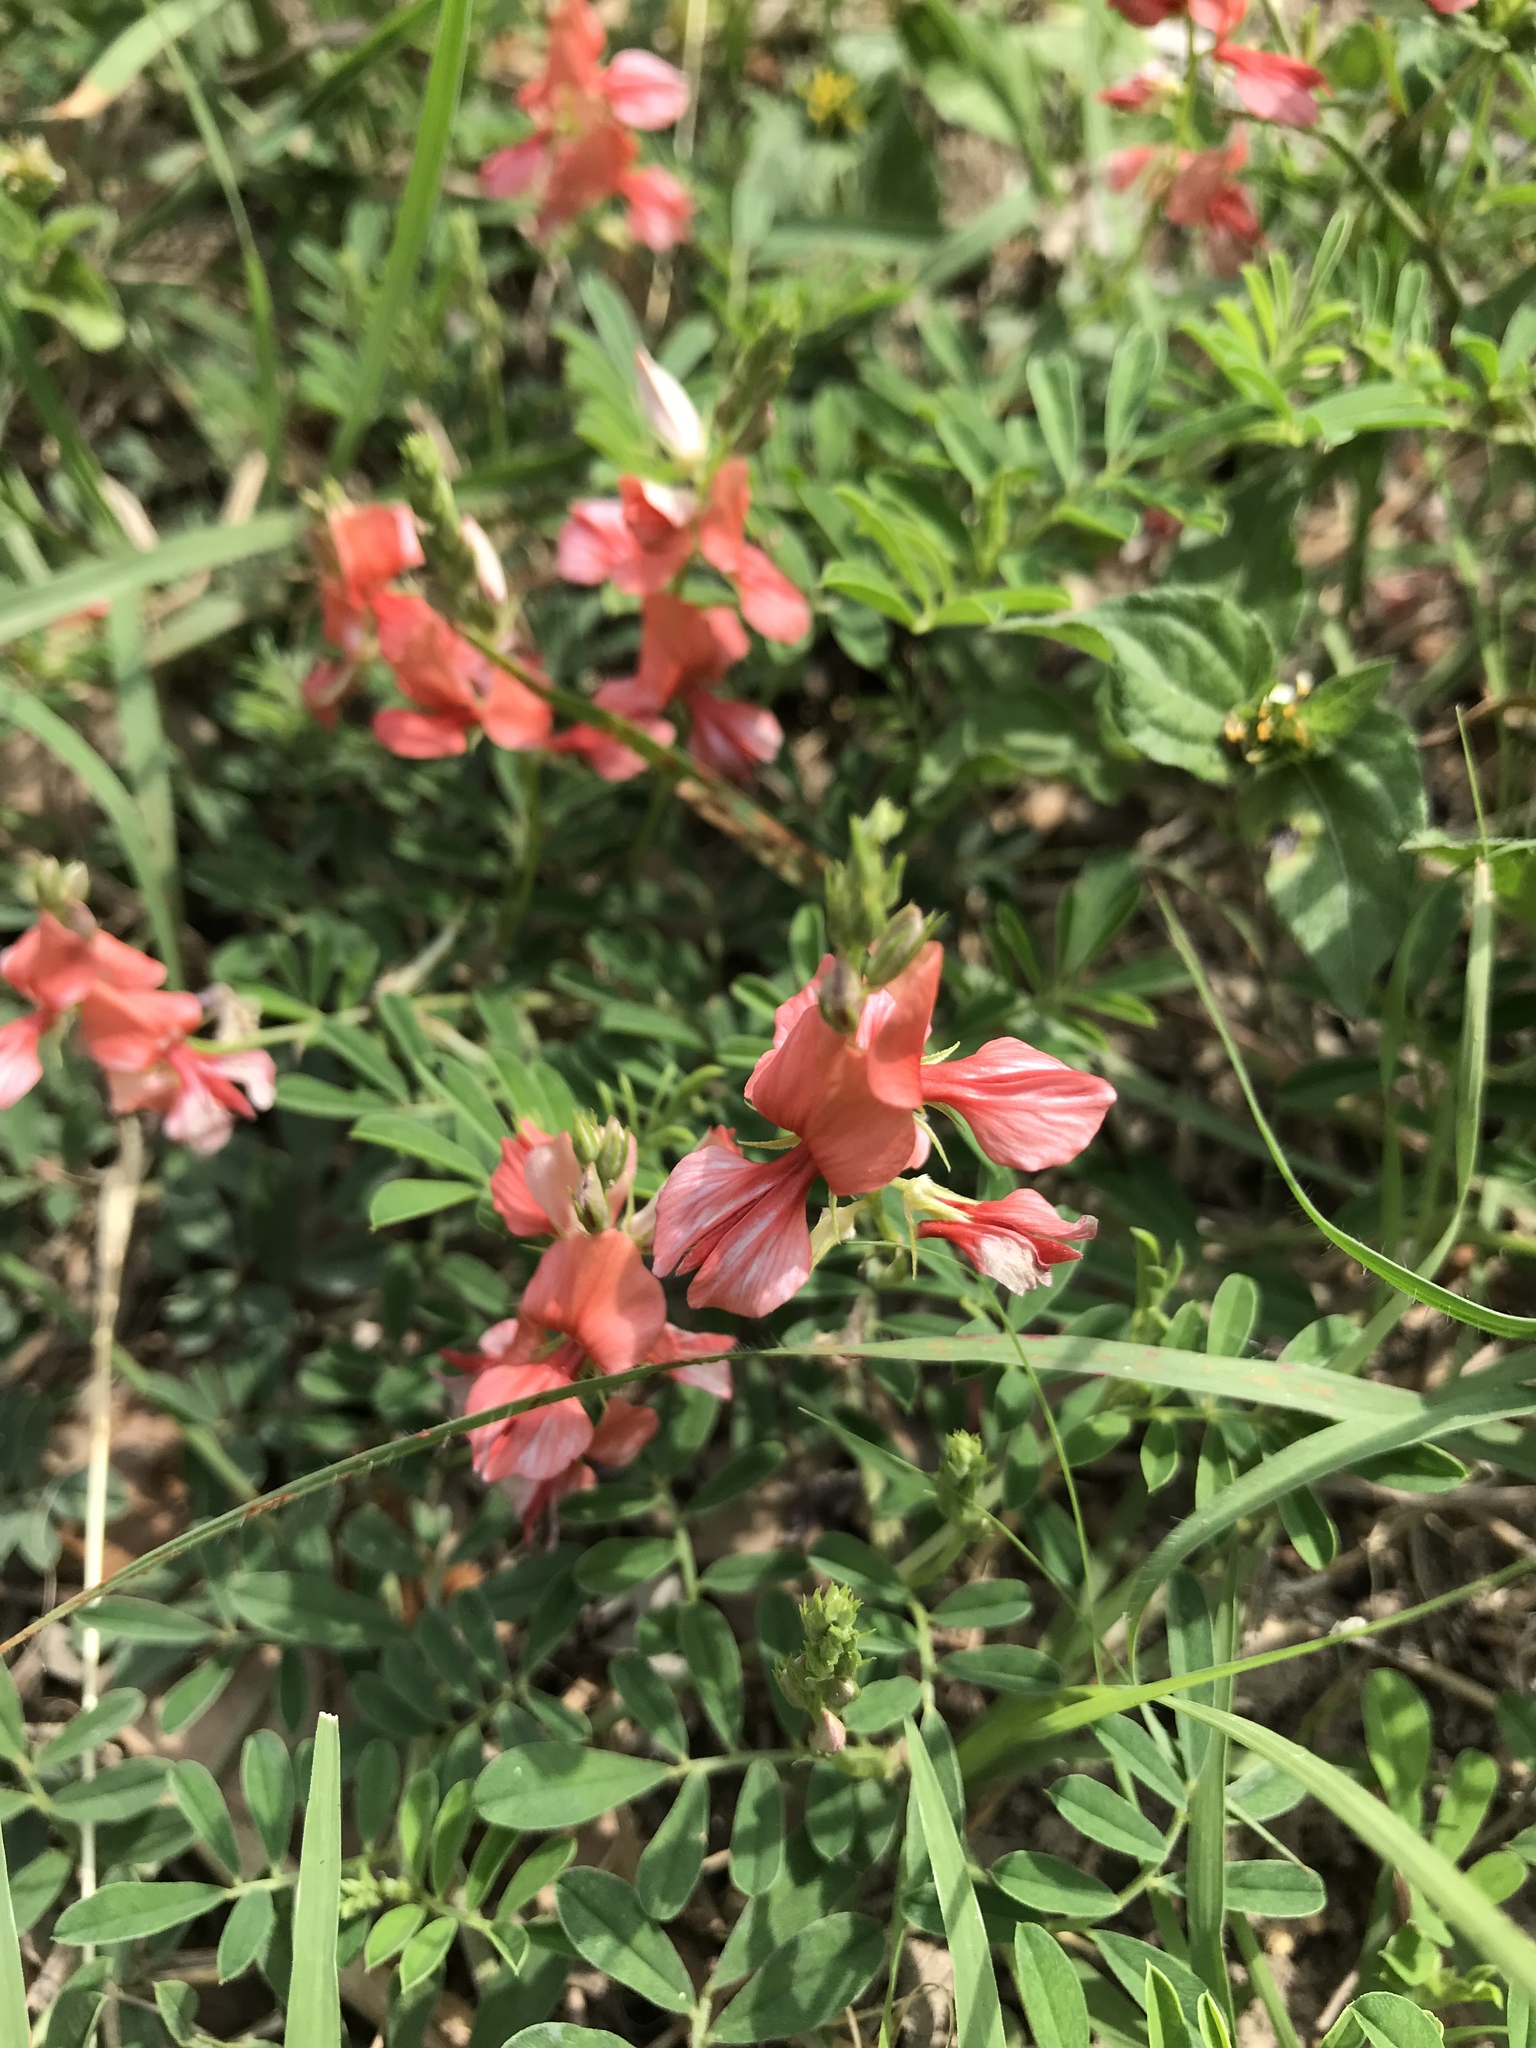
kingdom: Plantae
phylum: Tracheophyta
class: Magnoliopsida
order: Fabales
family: Fabaceae
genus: Indigofera
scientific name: Indigofera miniata
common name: Coast indigo
